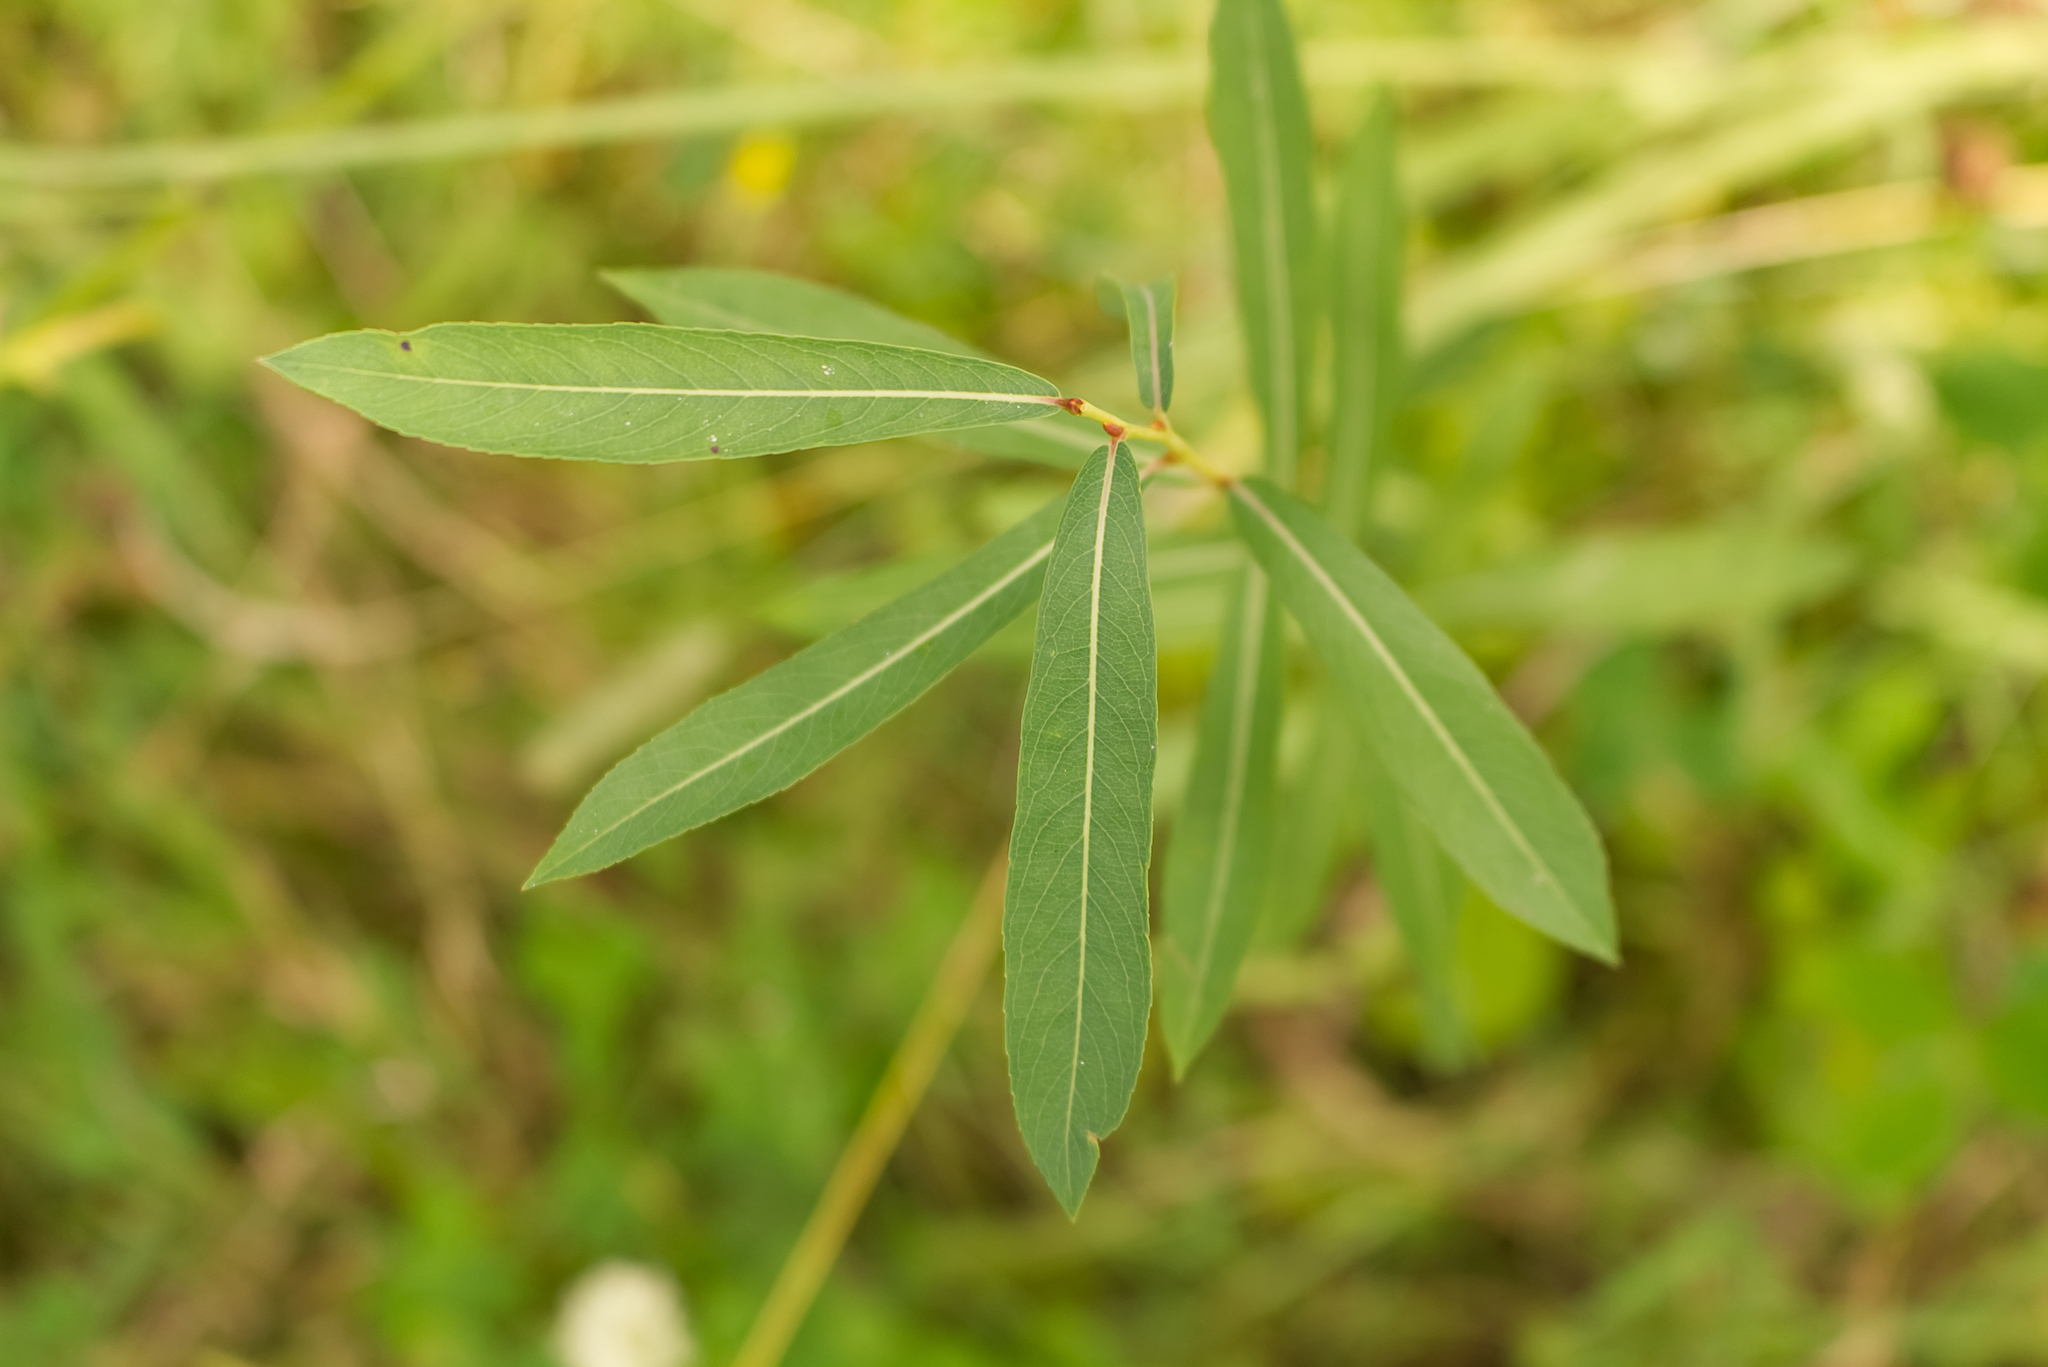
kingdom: Plantae
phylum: Tracheophyta
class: Magnoliopsida
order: Malpighiales
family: Salicaceae
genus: Salix
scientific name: Salix purpurea
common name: Purple willow
